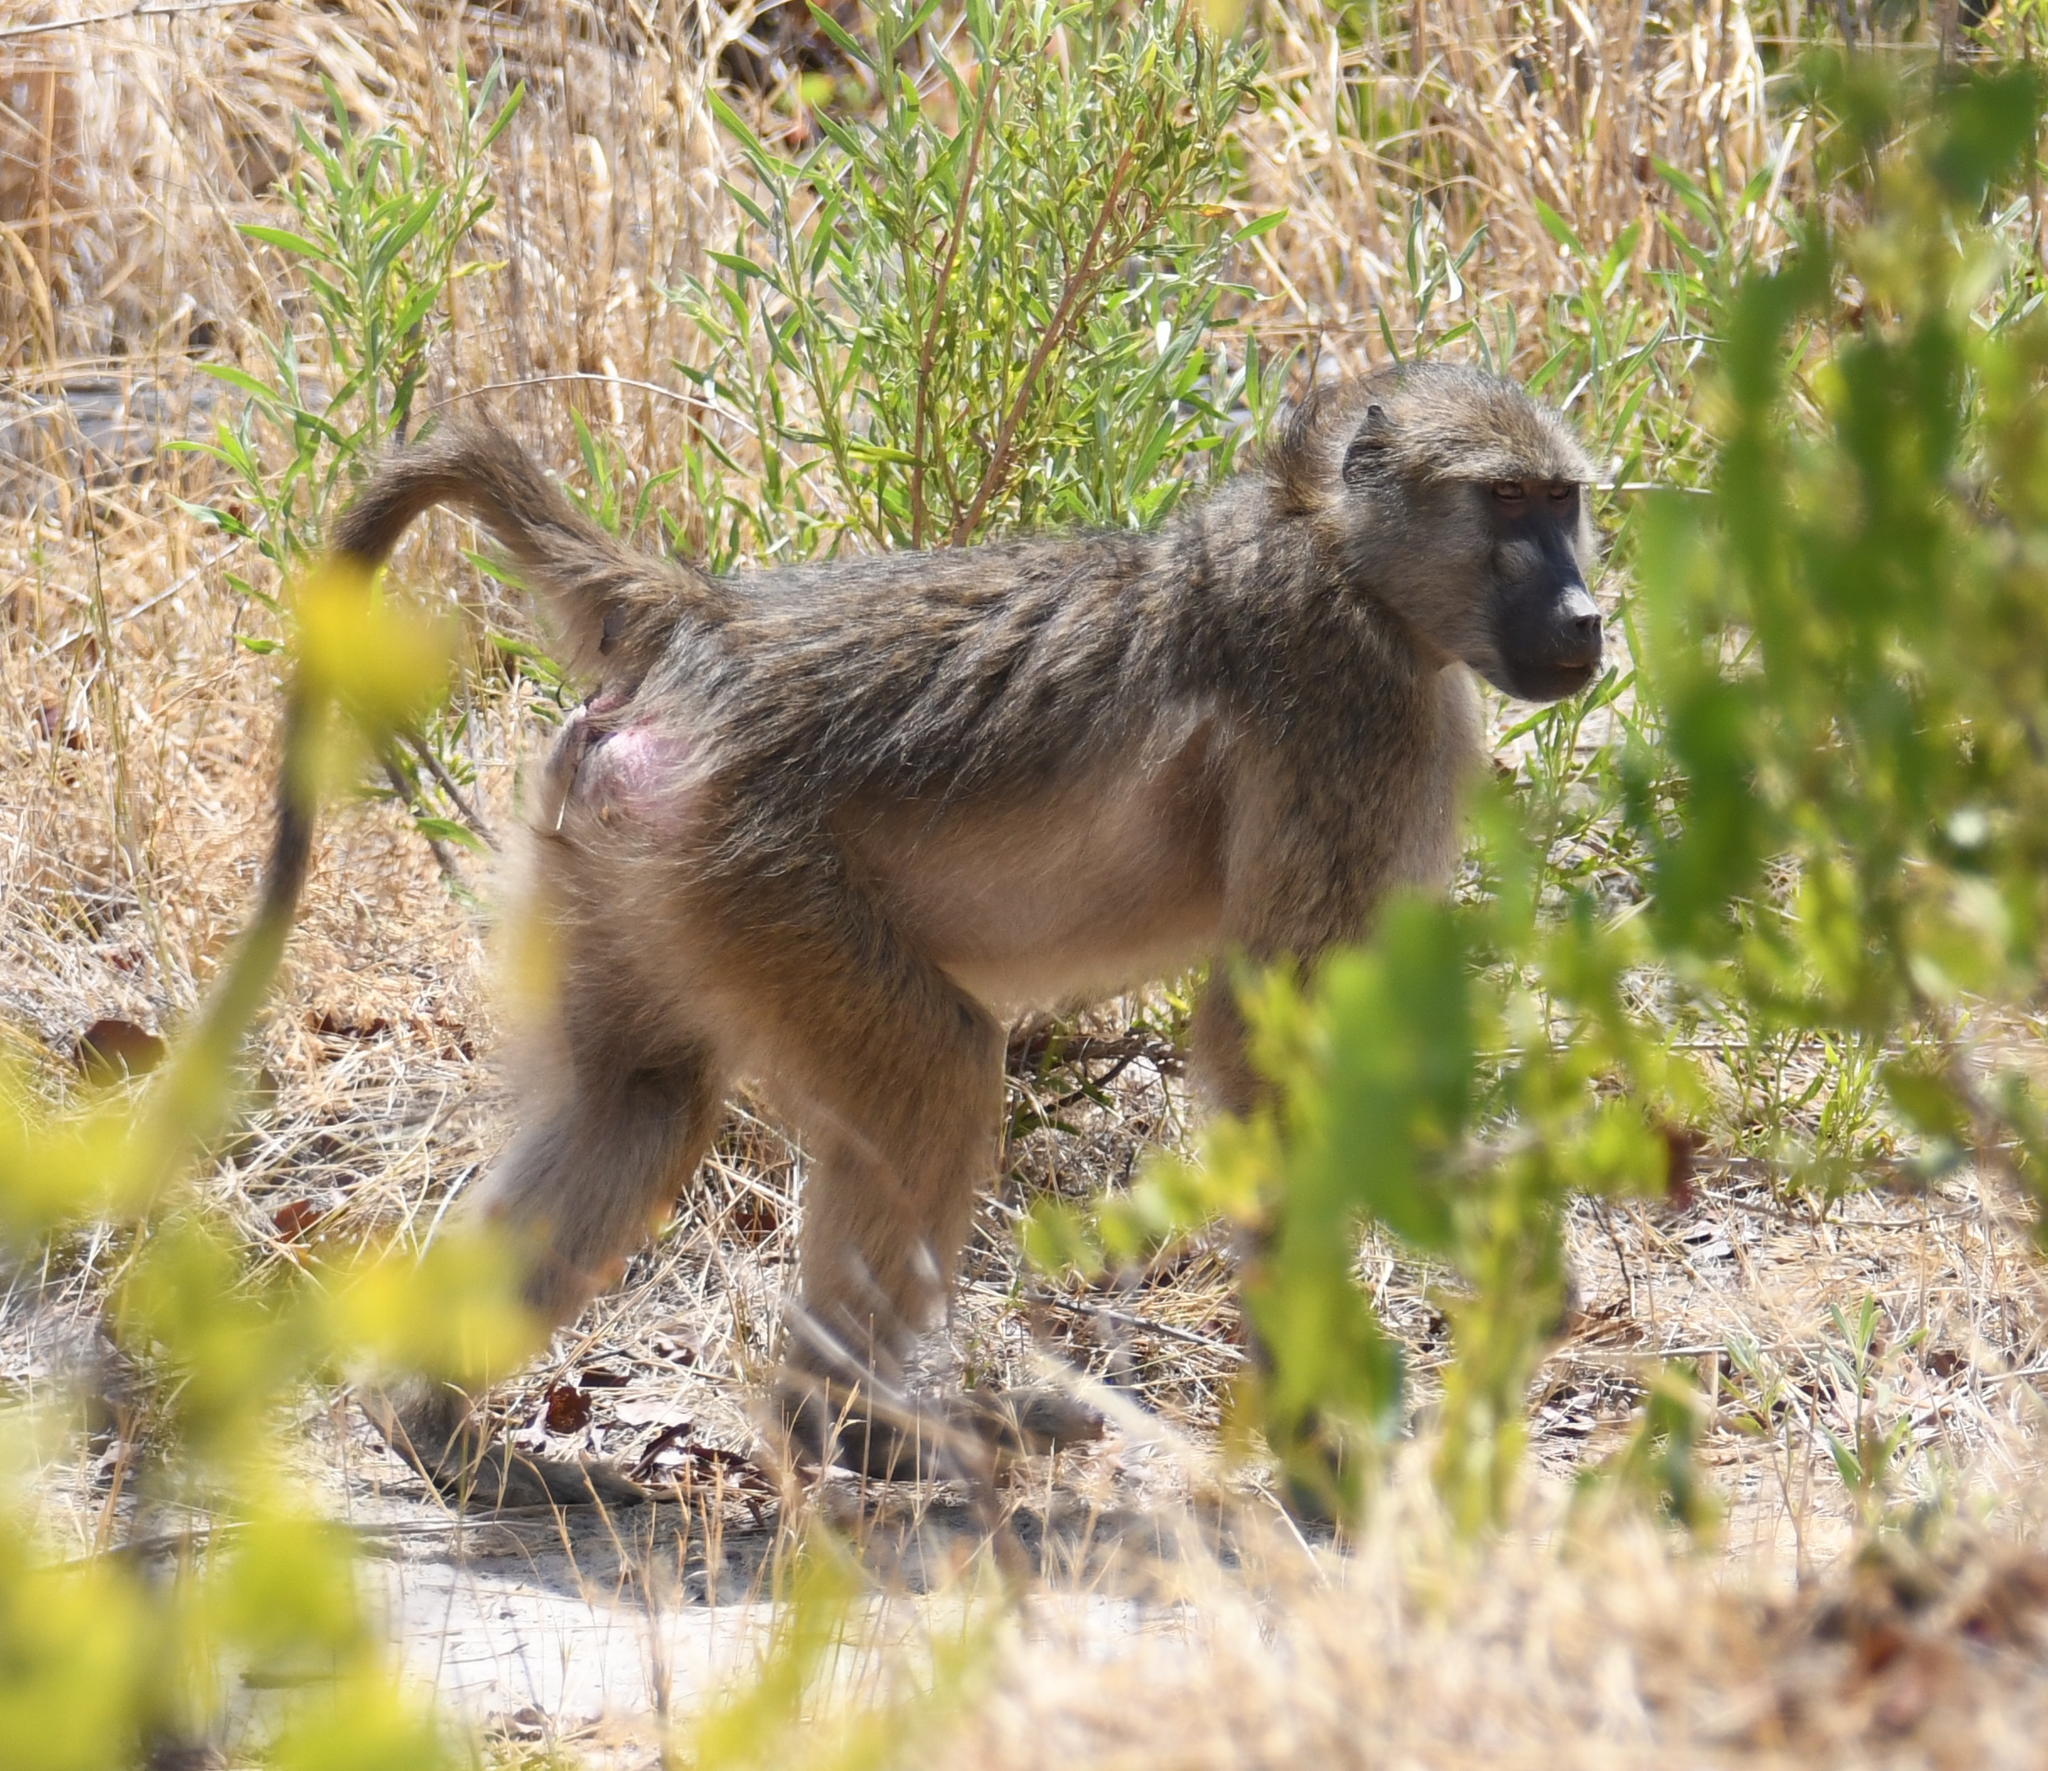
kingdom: Animalia
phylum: Chordata
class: Mammalia
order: Primates
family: Cercopithecidae
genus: Papio
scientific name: Papio ursinus
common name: Chacma baboon
